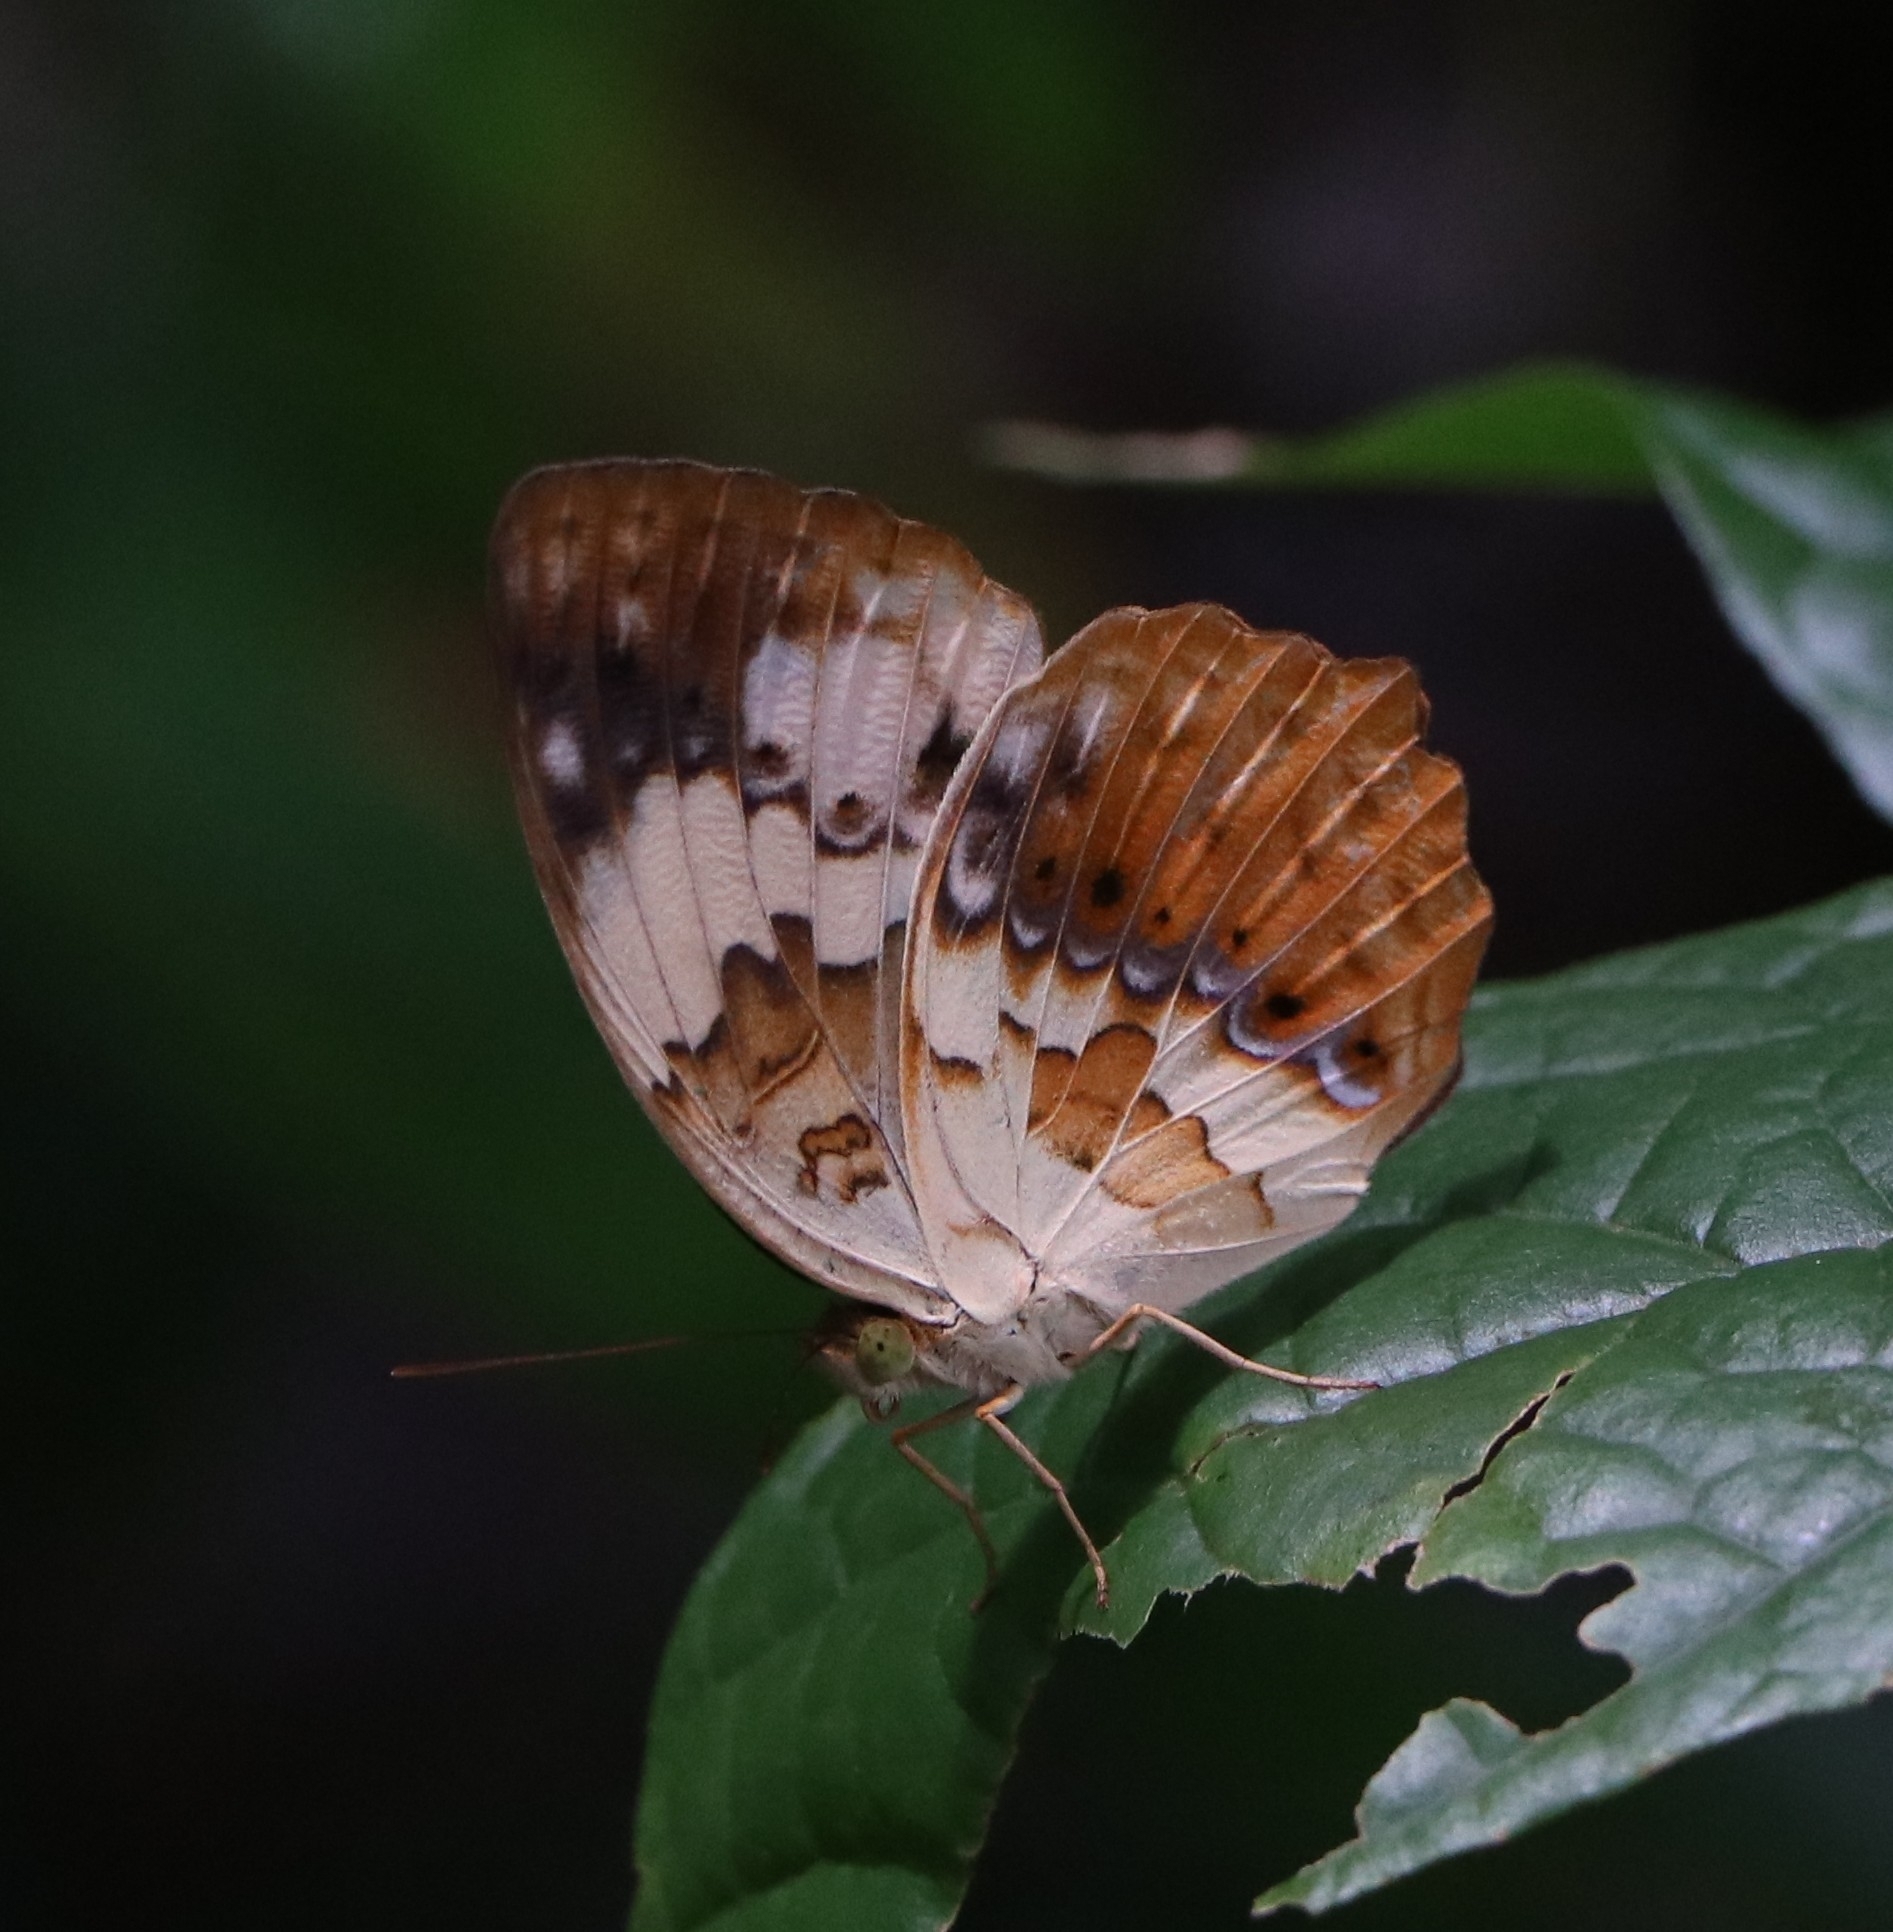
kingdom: Animalia
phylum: Arthropoda
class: Insecta
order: Lepidoptera
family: Nymphalidae
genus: Cupha
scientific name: Cupha erymanthis
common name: Rustic
